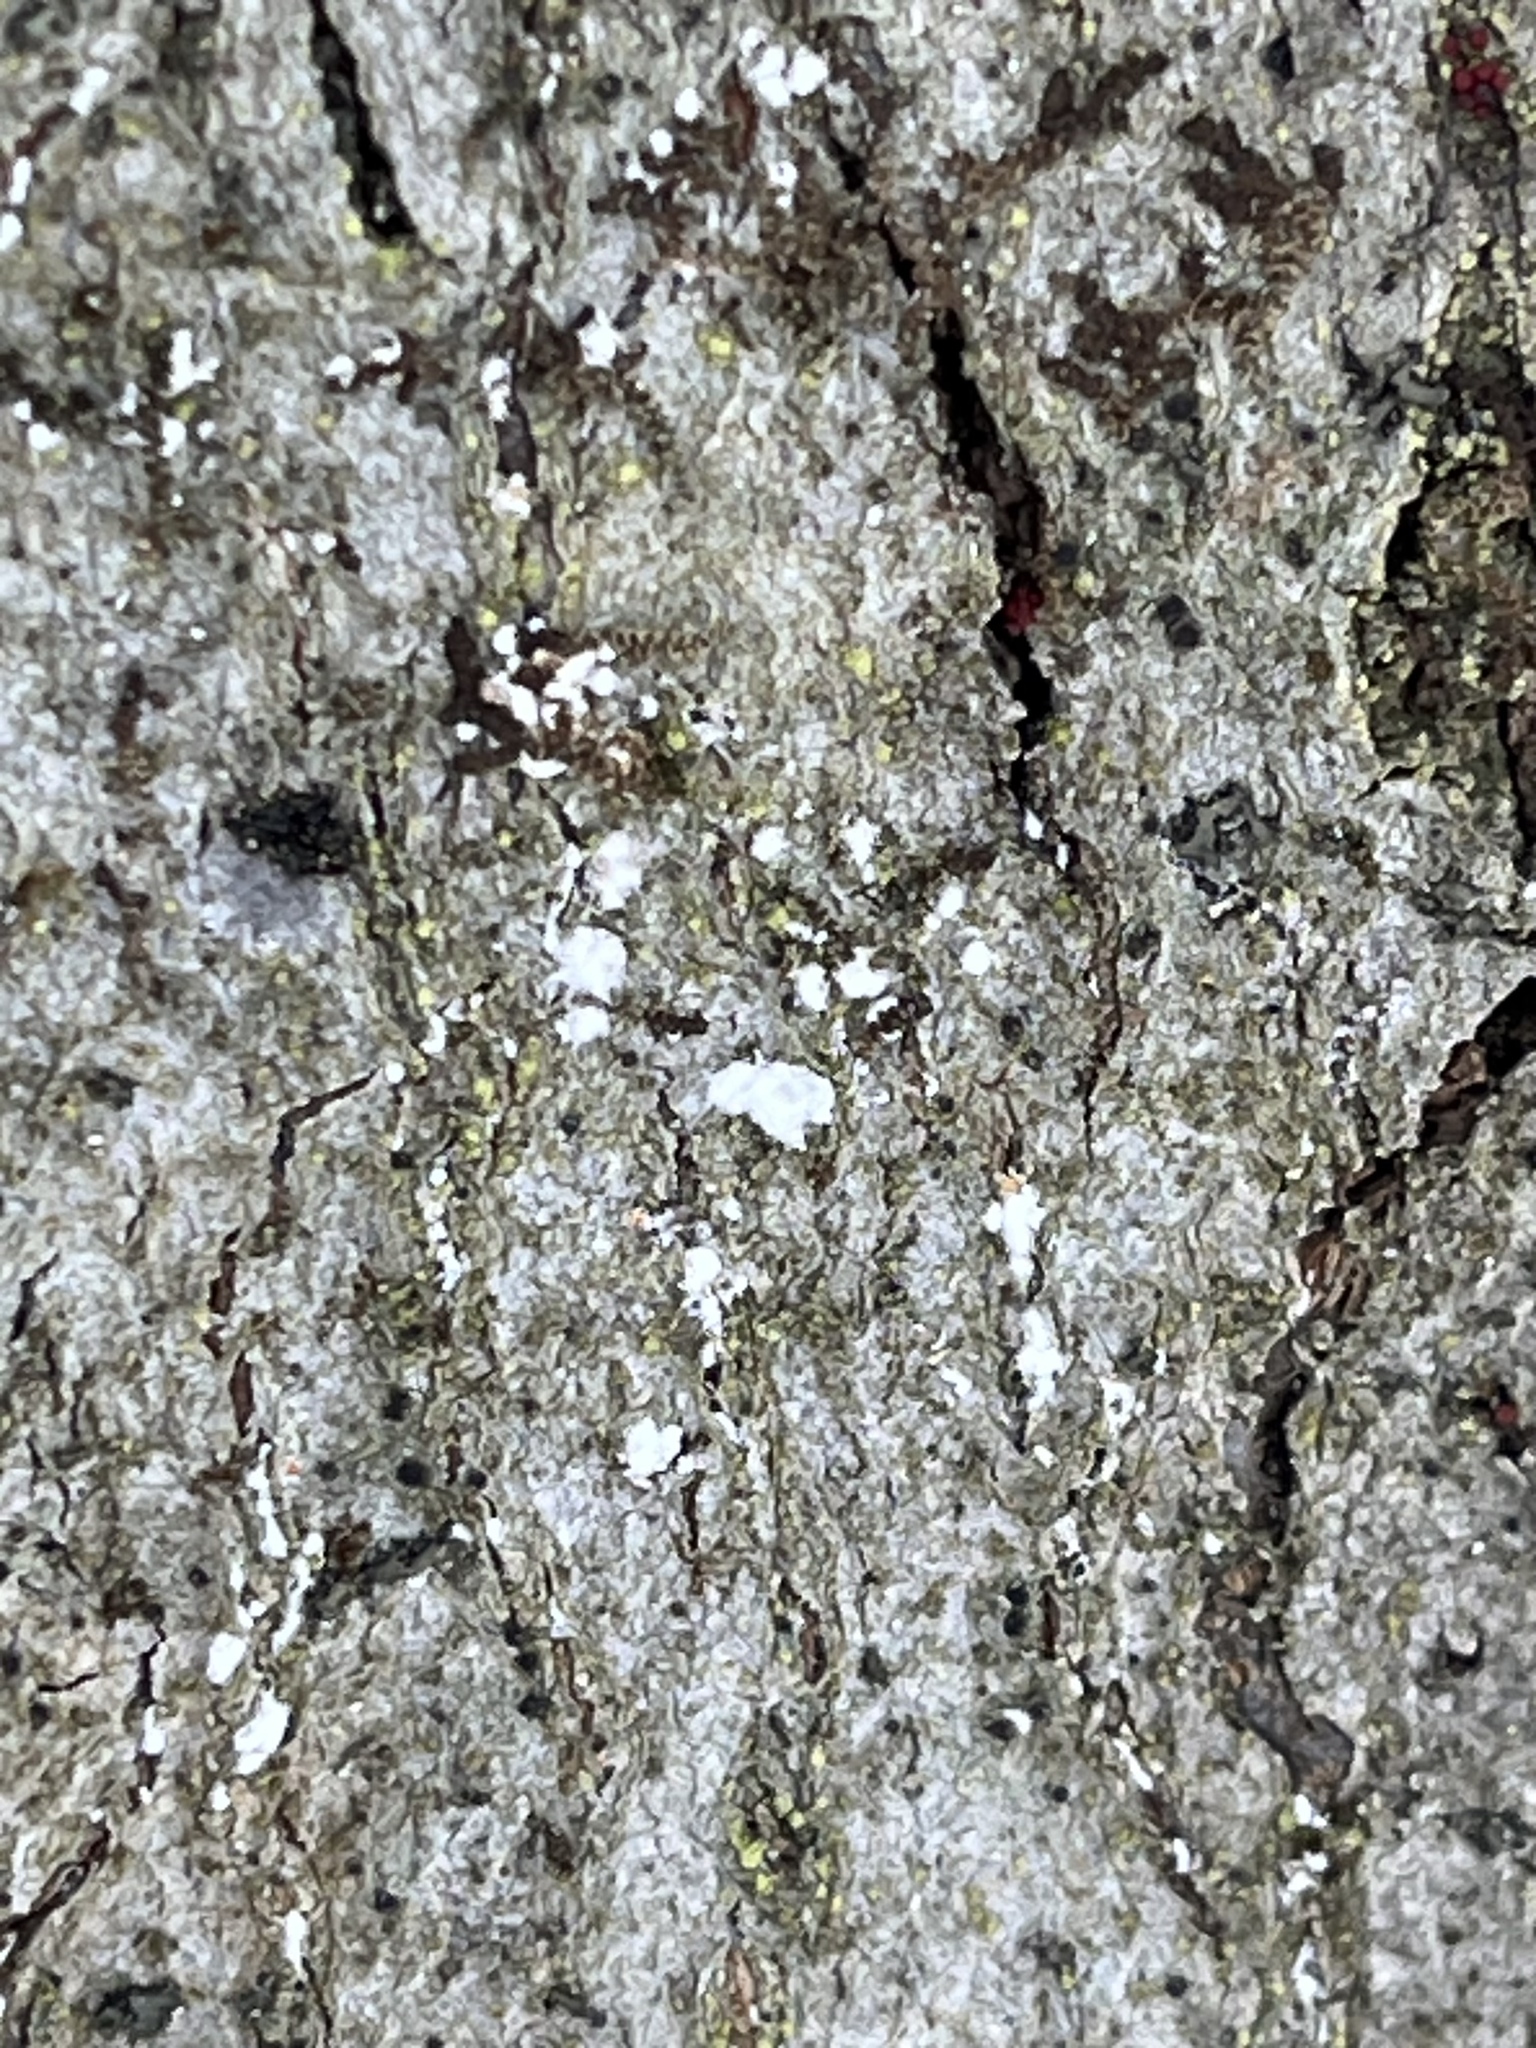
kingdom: Animalia
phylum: Arthropoda
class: Insecta
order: Hemiptera
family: Eriococcidae
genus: Cryptococcus
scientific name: Cryptococcus fagisuga
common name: Beech scale
